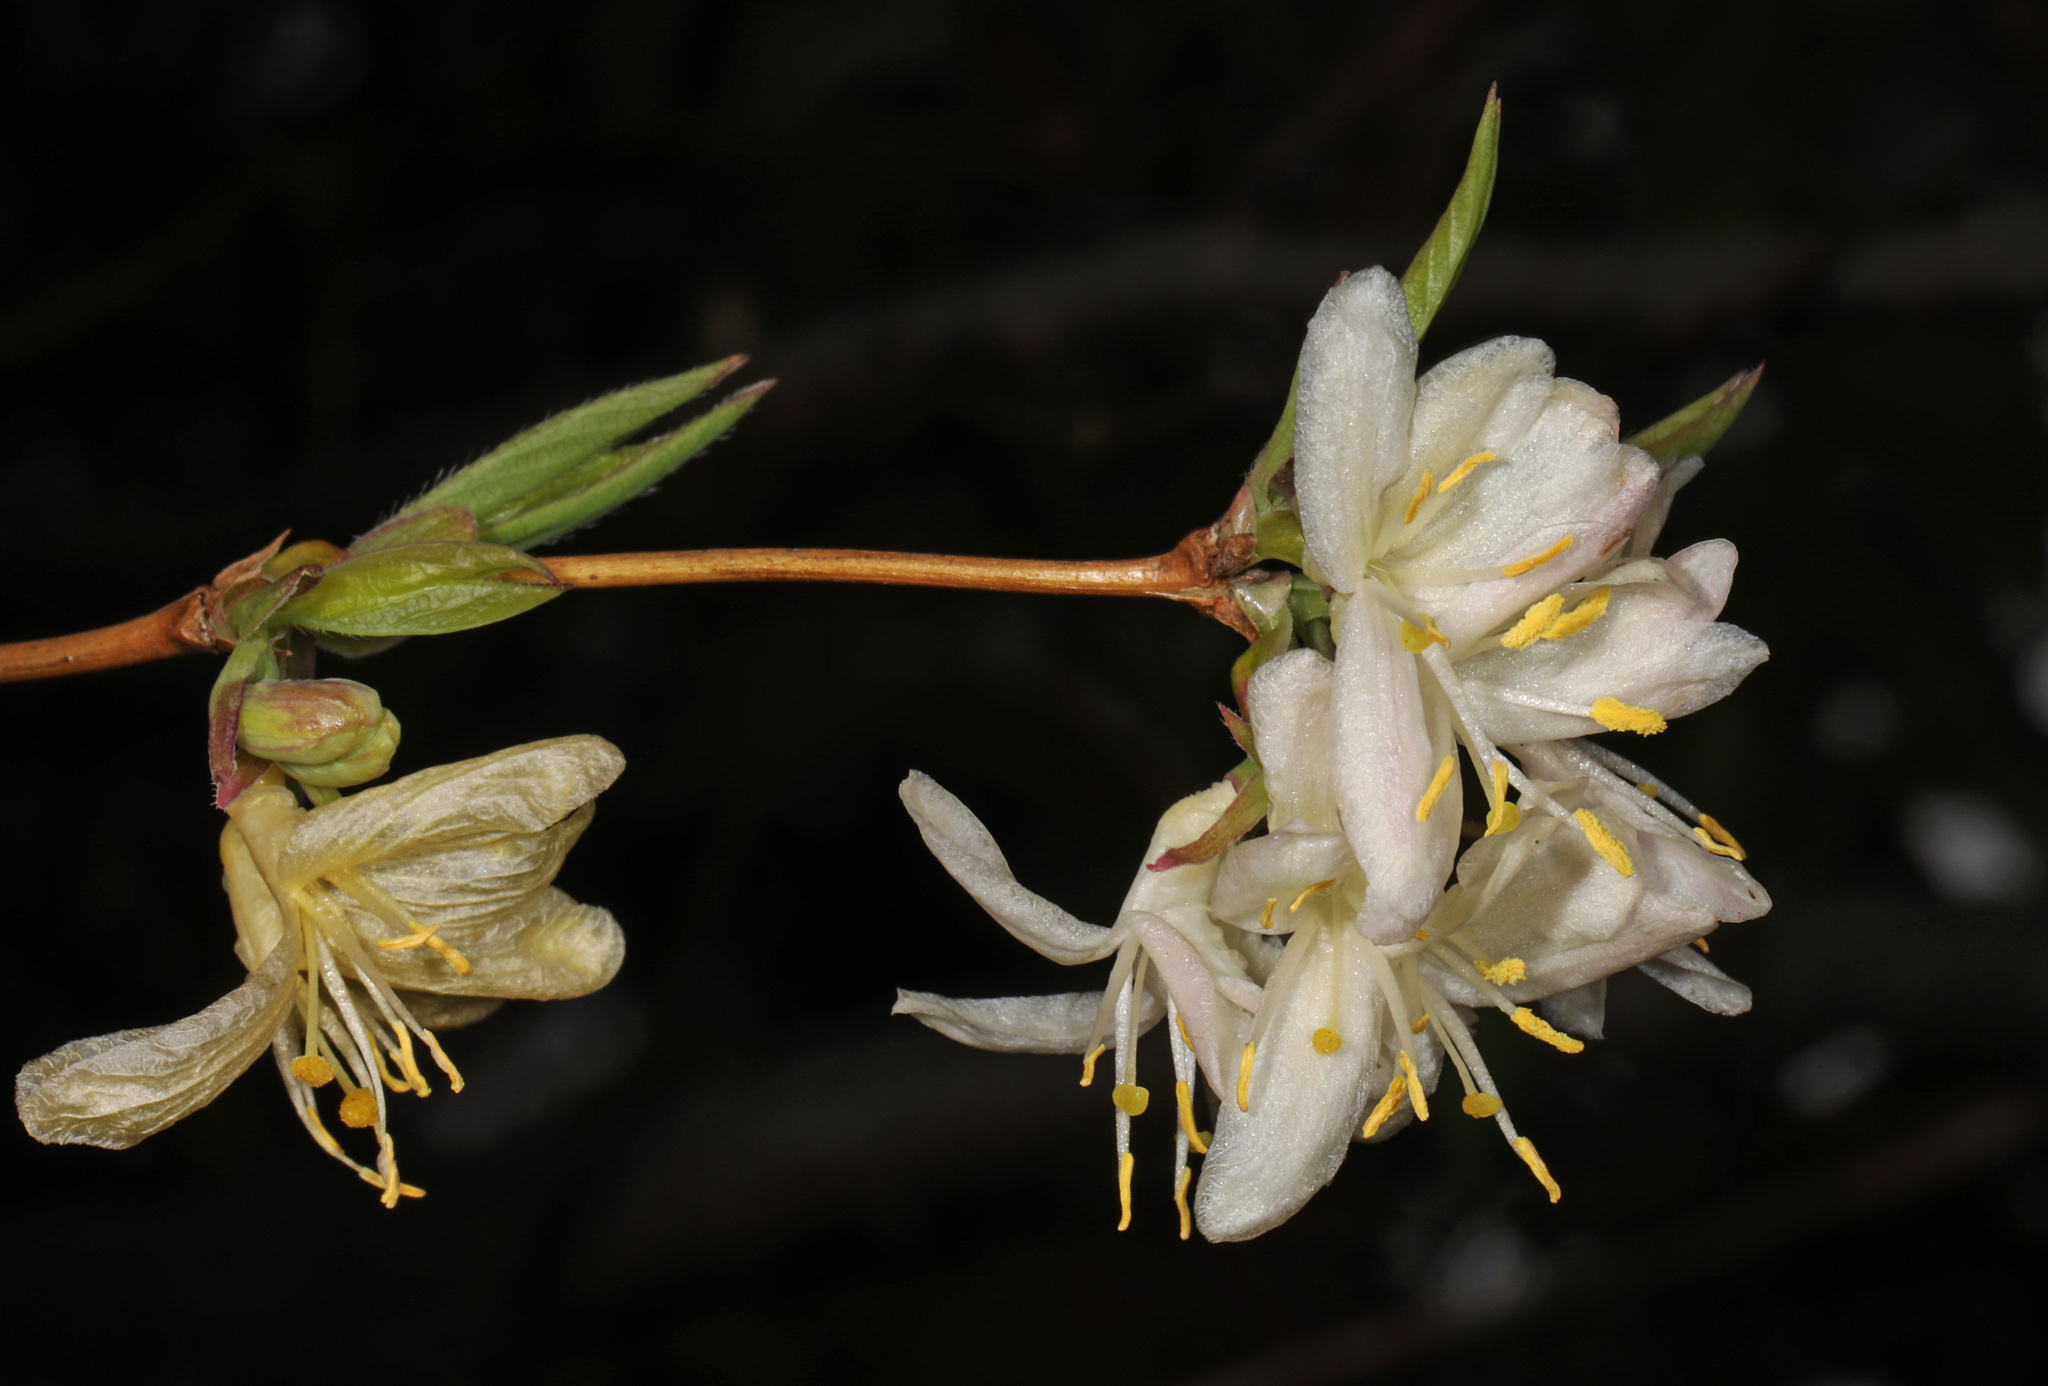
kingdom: Plantae
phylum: Tracheophyta
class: Magnoliopsida
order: Dipsacales
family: Caprifoliaceae
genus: Lonicera
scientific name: Lonicera fragrantissima
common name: Fragrant honeysuckle
